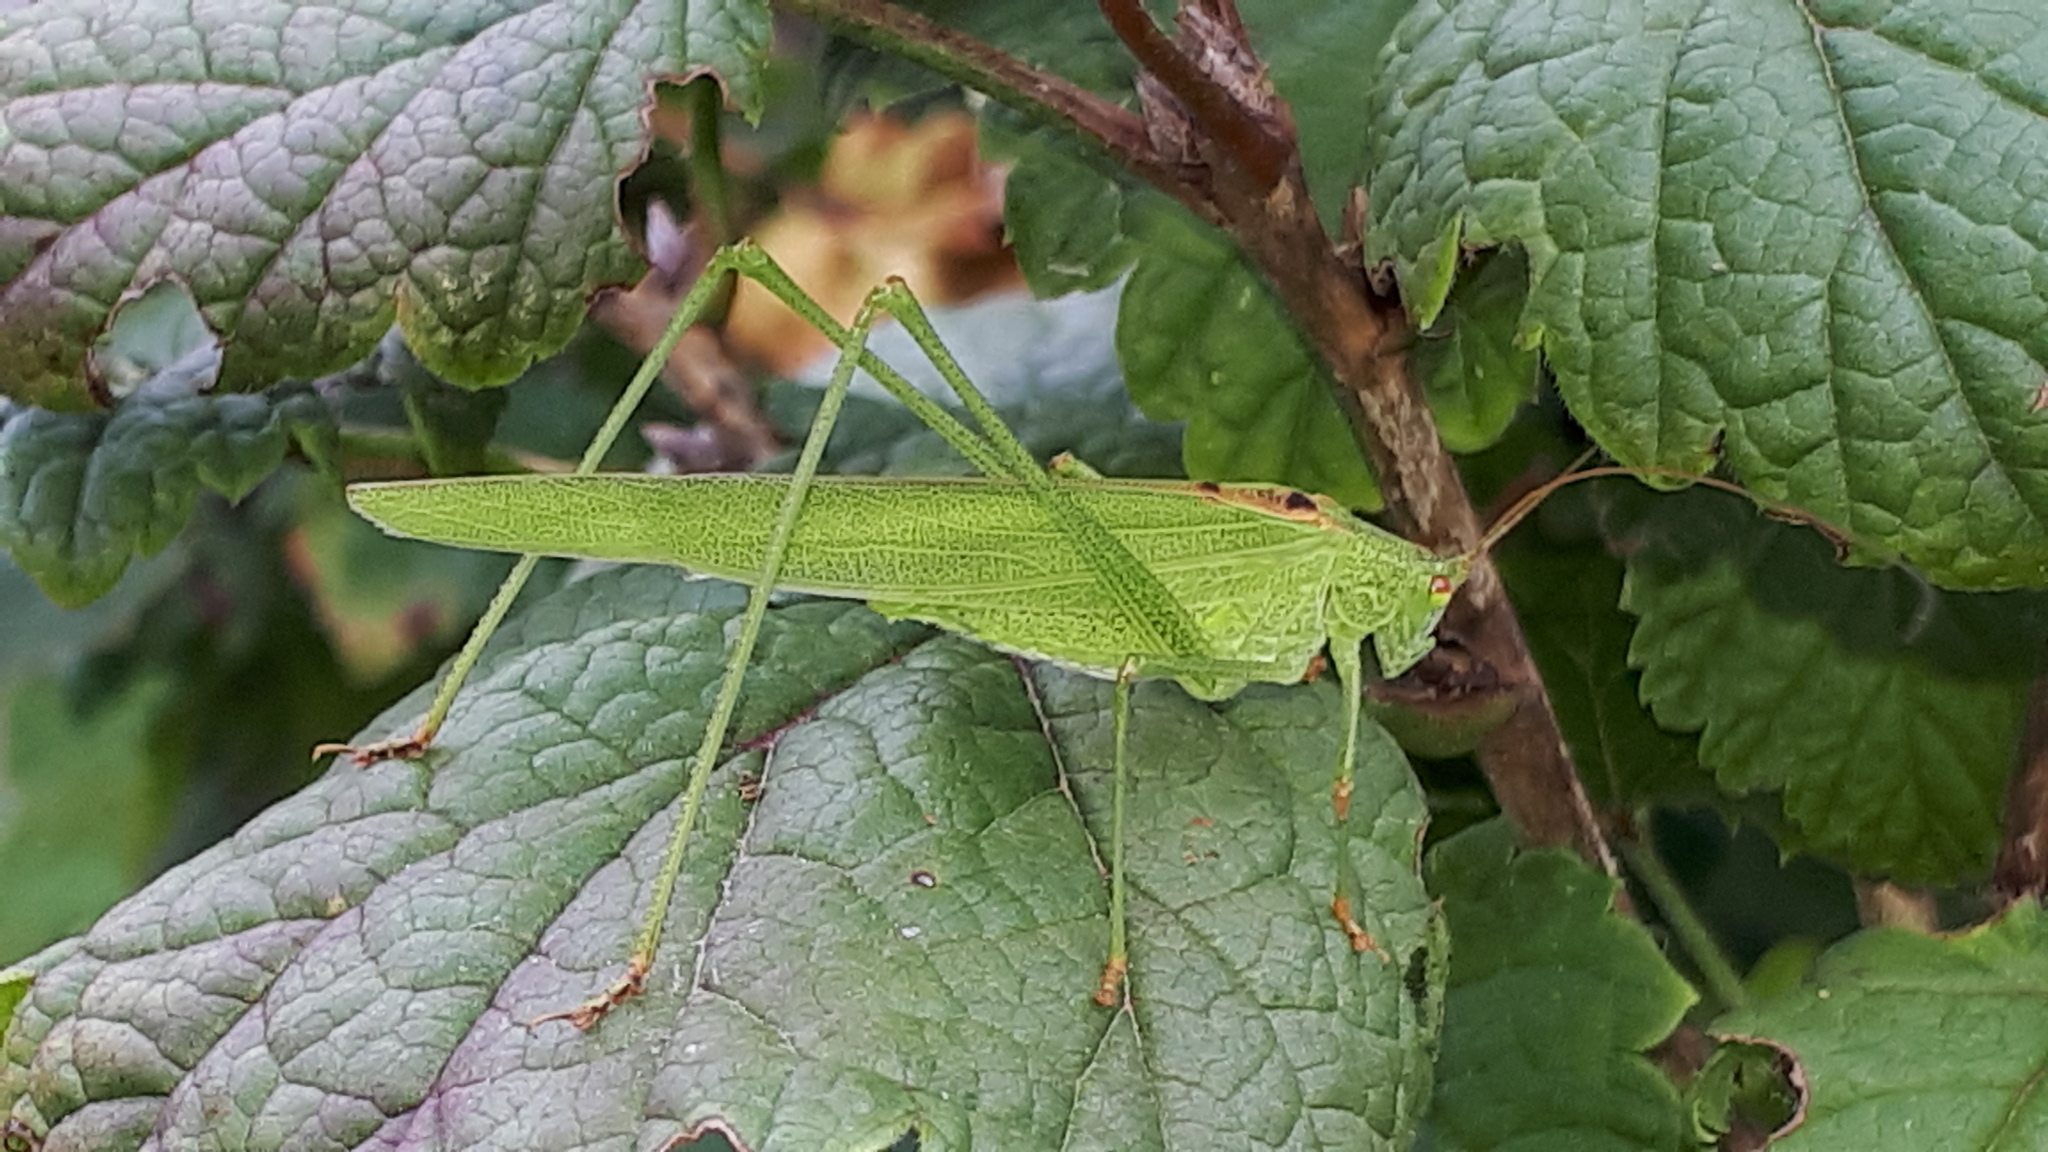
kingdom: Animalia
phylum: Arthropoda
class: Insecta
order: Orthoptera
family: Tettigoniidae
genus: Phaneroptera
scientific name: Phaneroptera nana
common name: Southern sickle bush-cricket
